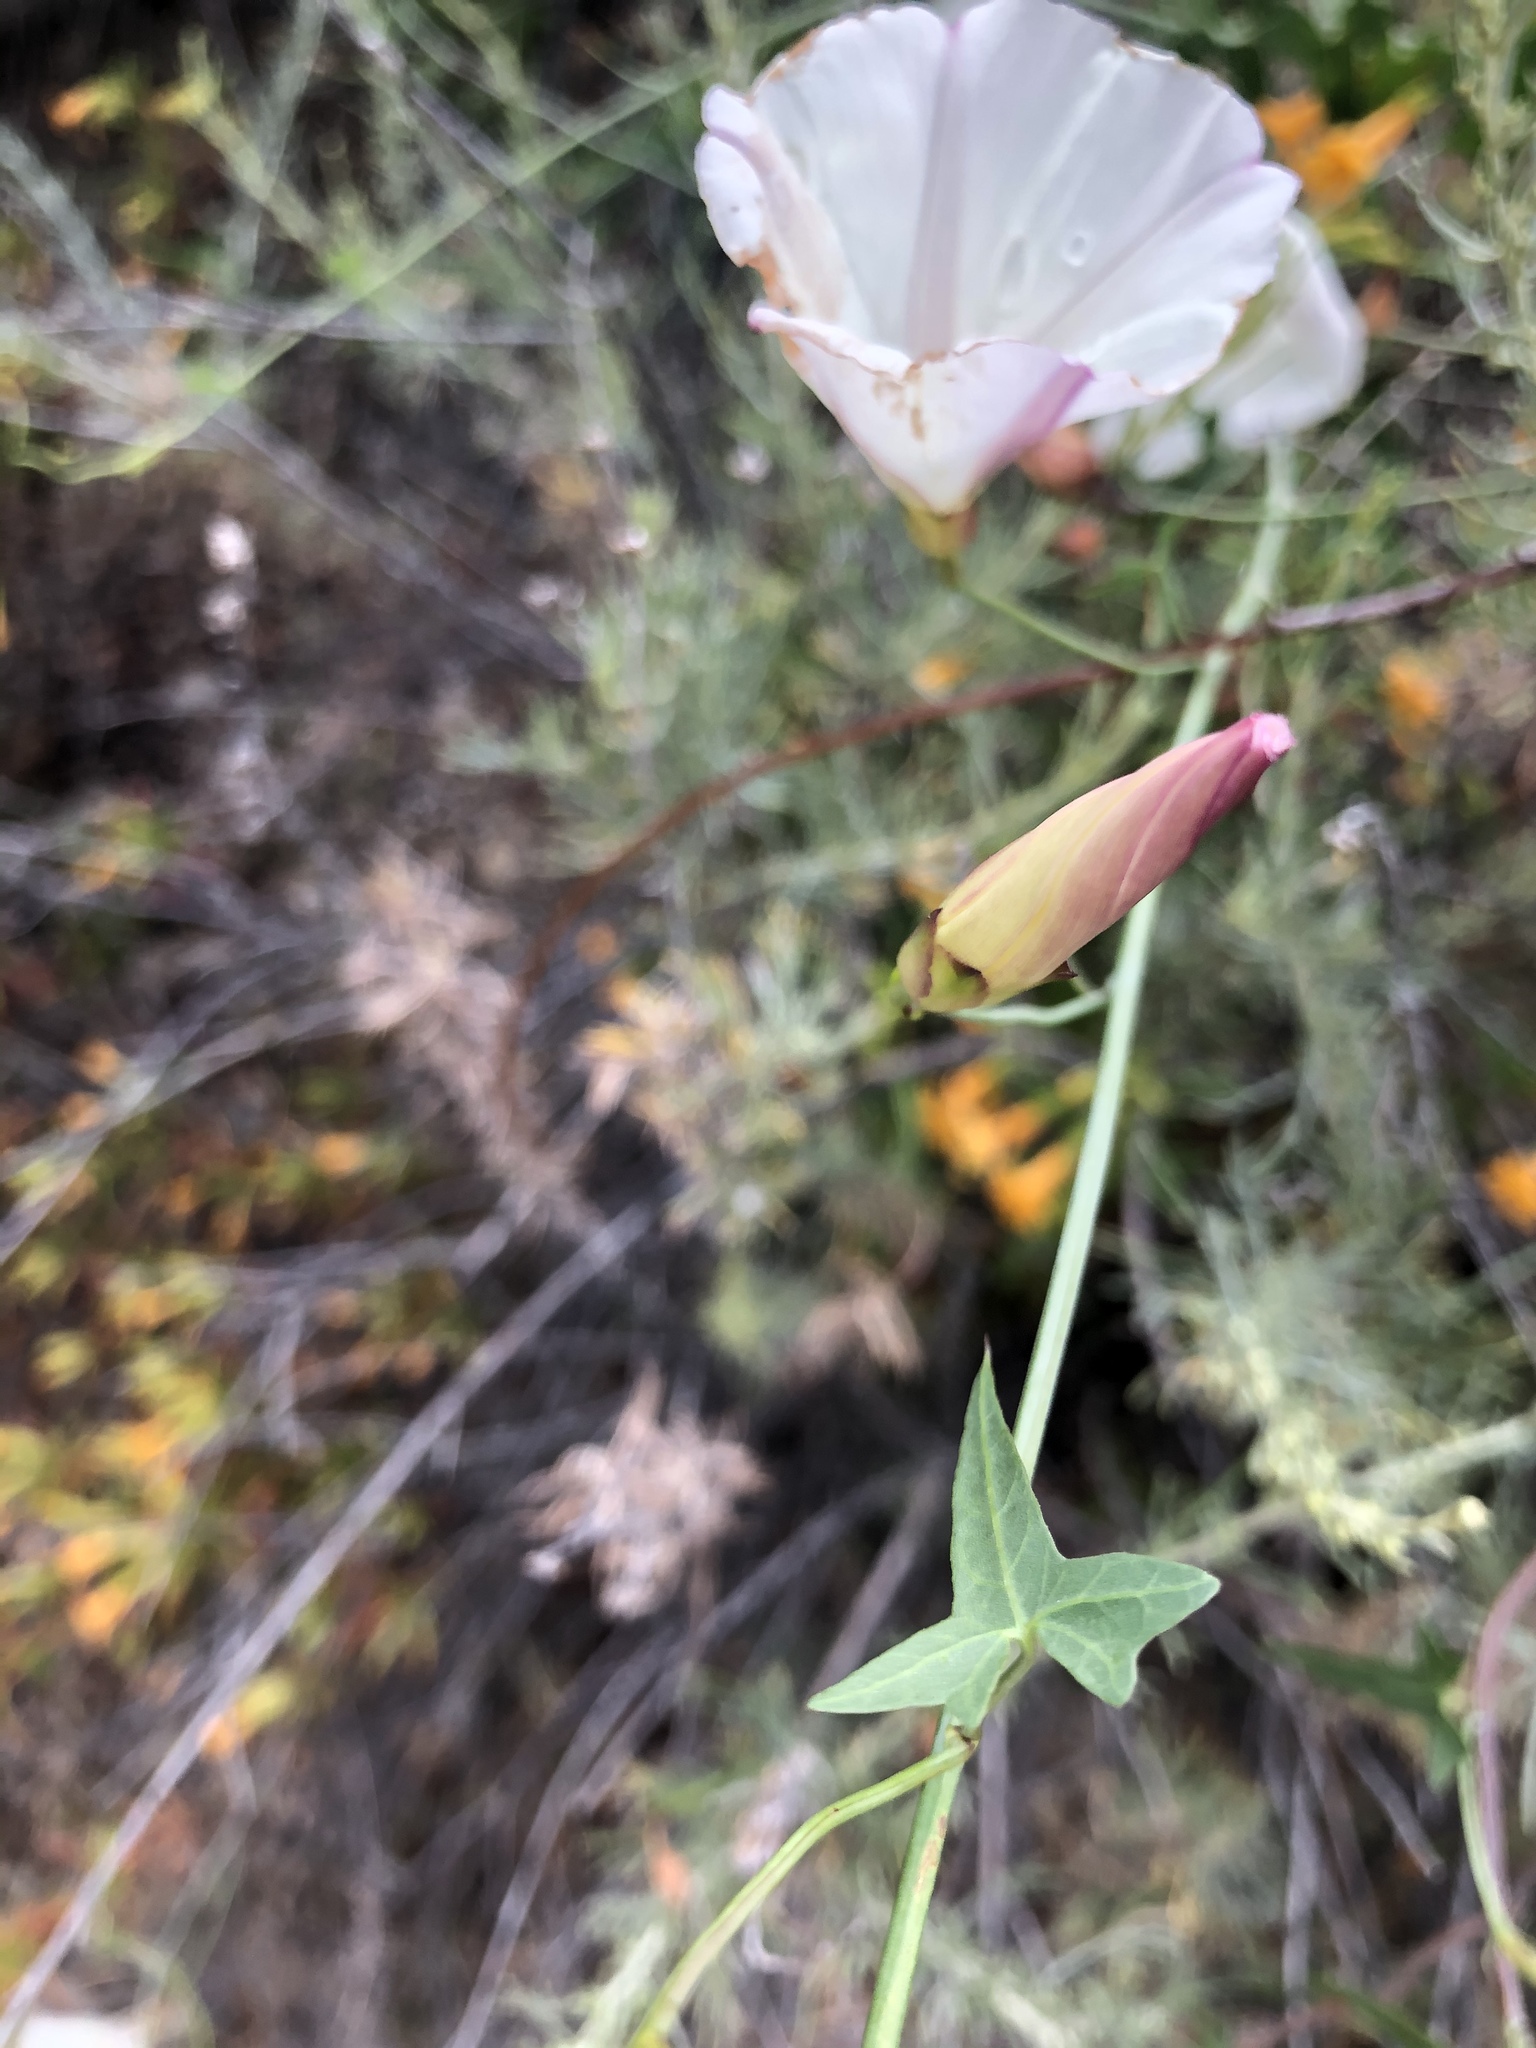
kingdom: Plantae
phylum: Tracheophyta
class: Magnoliopsida
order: Solanales
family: Convolvulaceae
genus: Calystegia
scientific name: Calystegia purpurata
